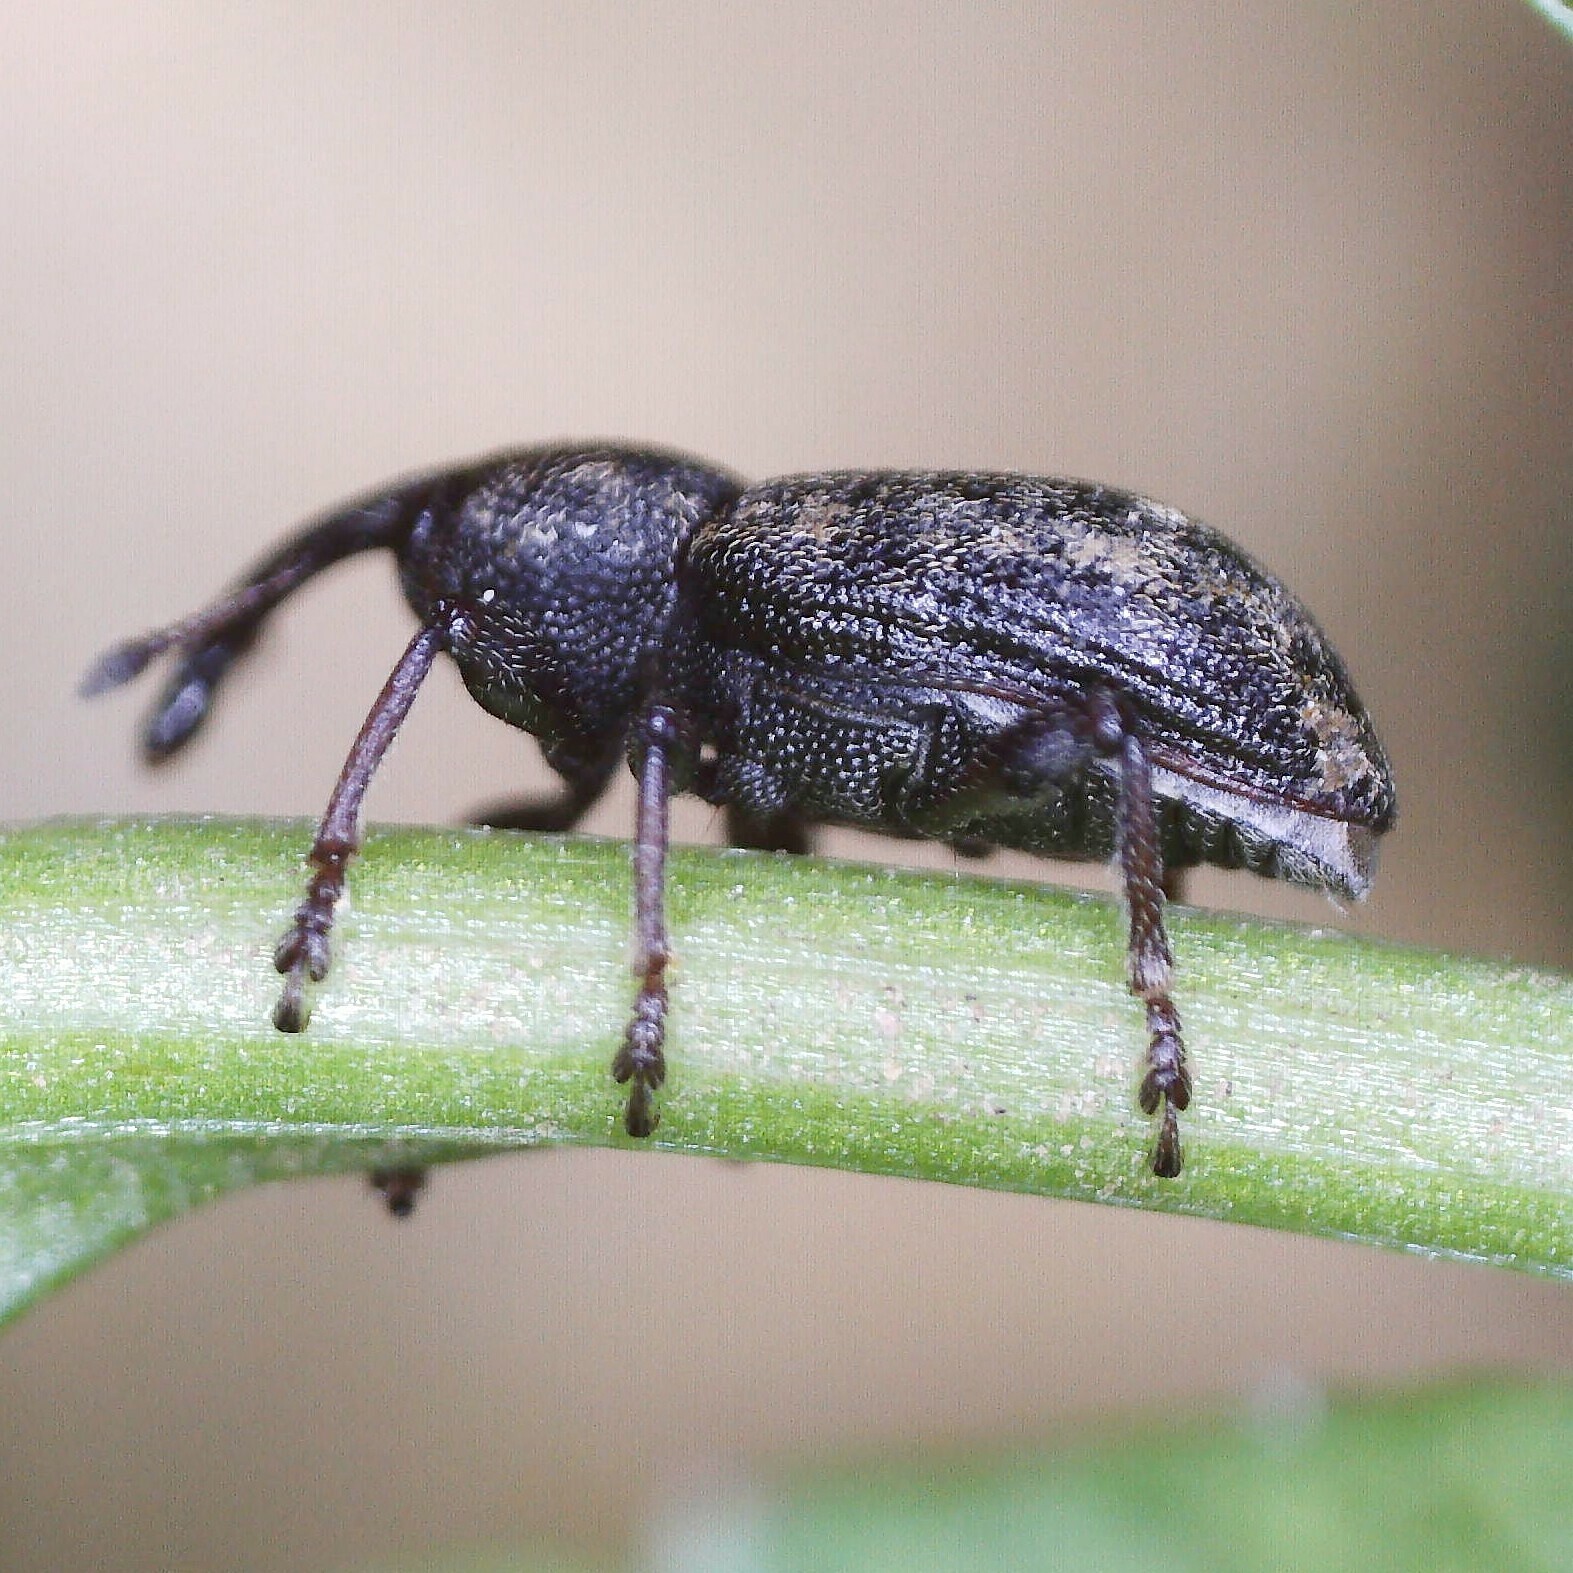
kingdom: Animalia
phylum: Arthropoda
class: Insecta
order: Coleoptera
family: Brachyceridae
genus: Notaris
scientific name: Notaris acridulus
